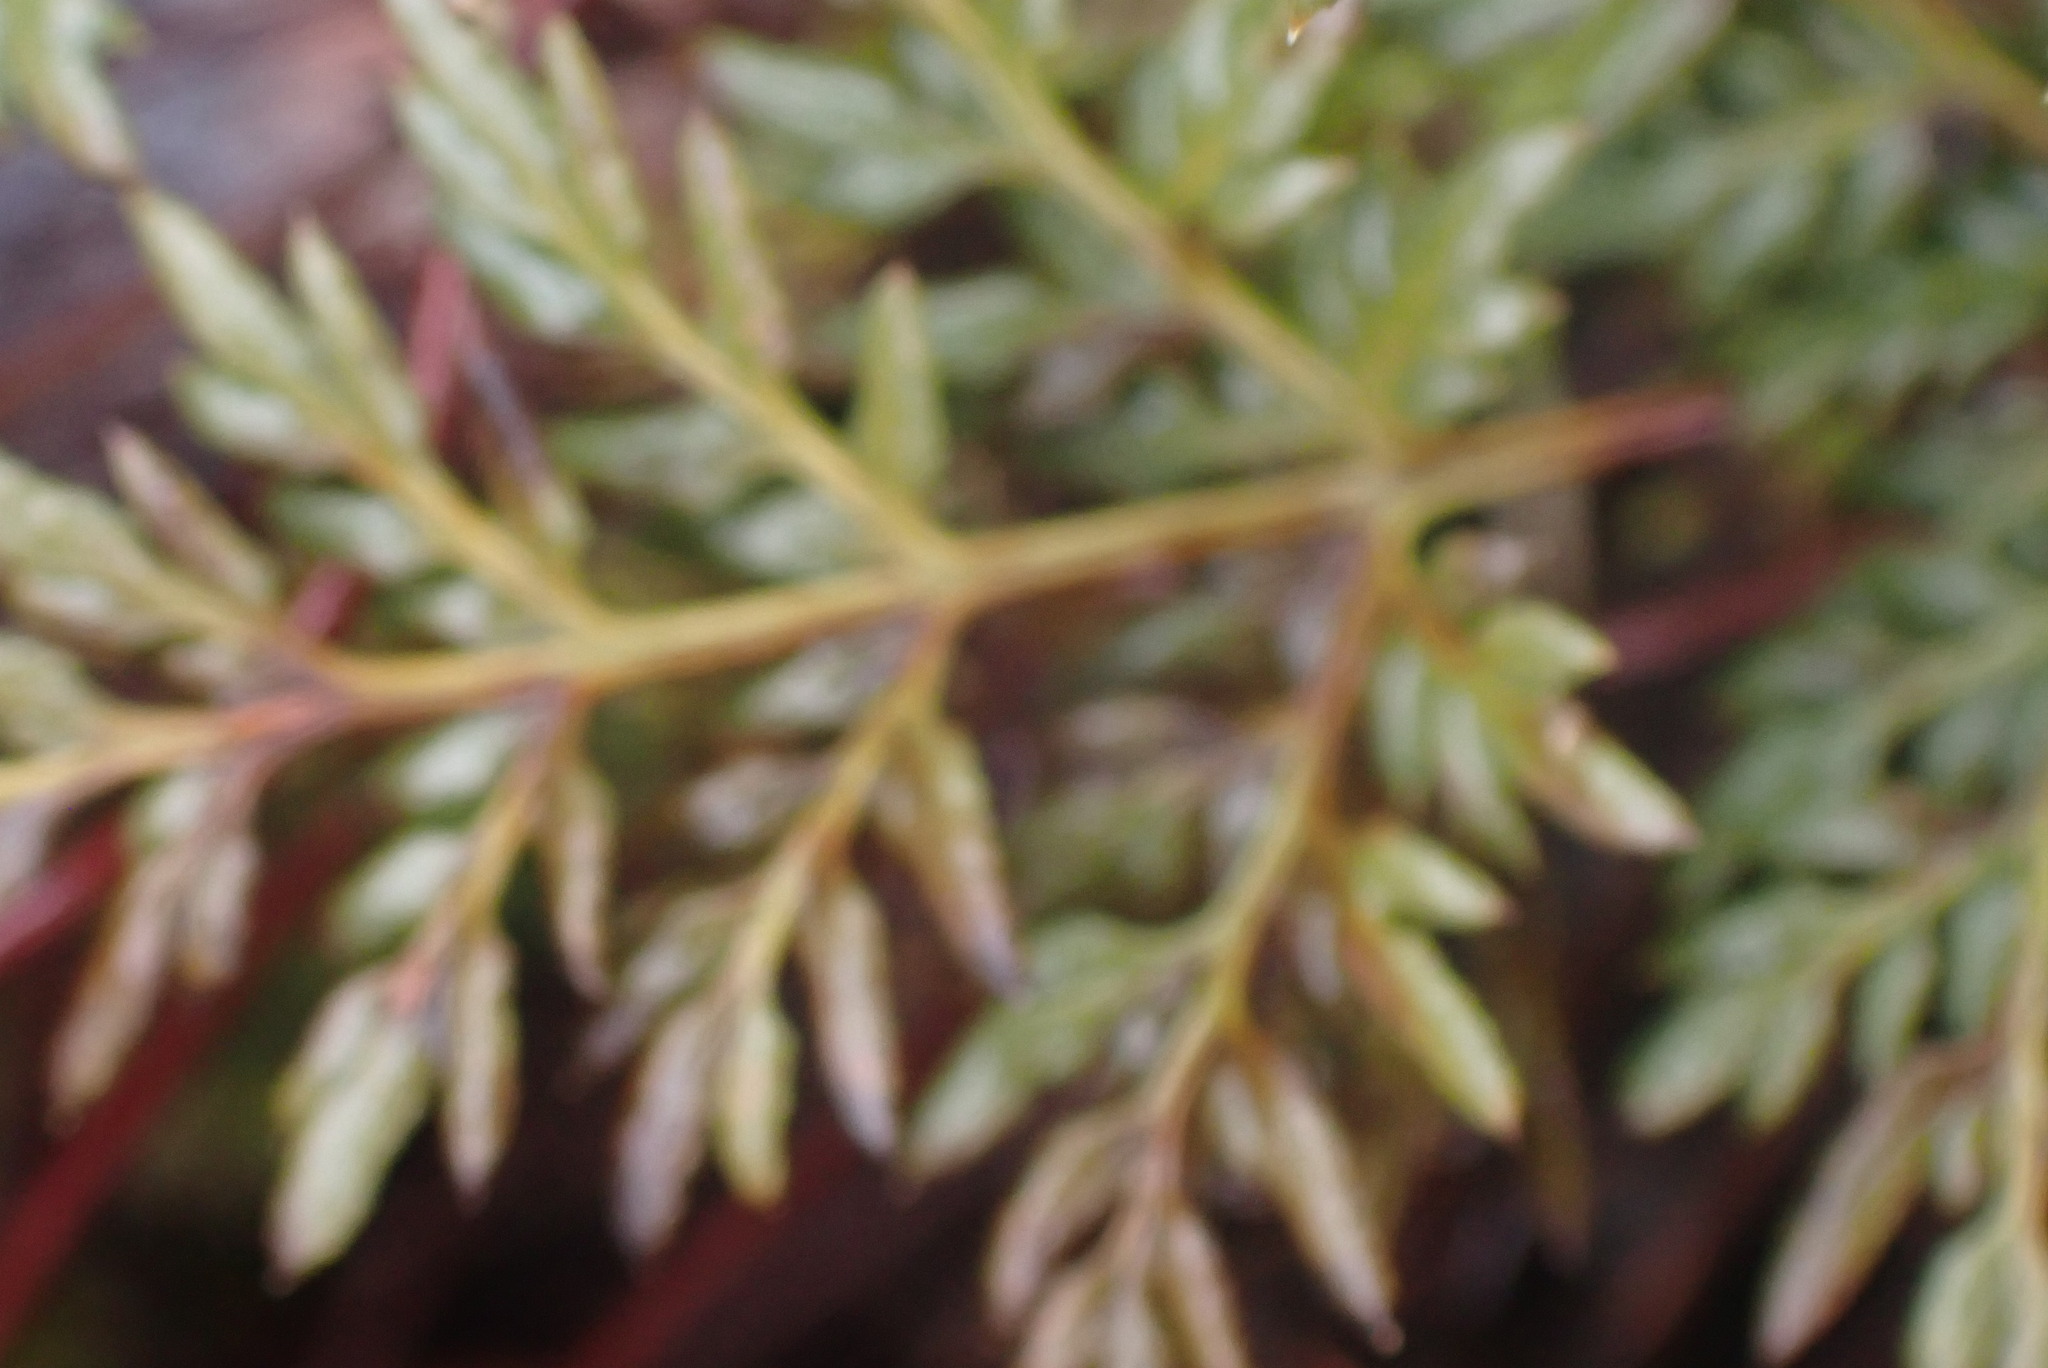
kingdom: Plantae
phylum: Tracheophyta
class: Polypodiopsida
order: Polypodiales
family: Pteridaceae
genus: Aspidotis
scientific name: Aspidotis densa
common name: Indian's dream
